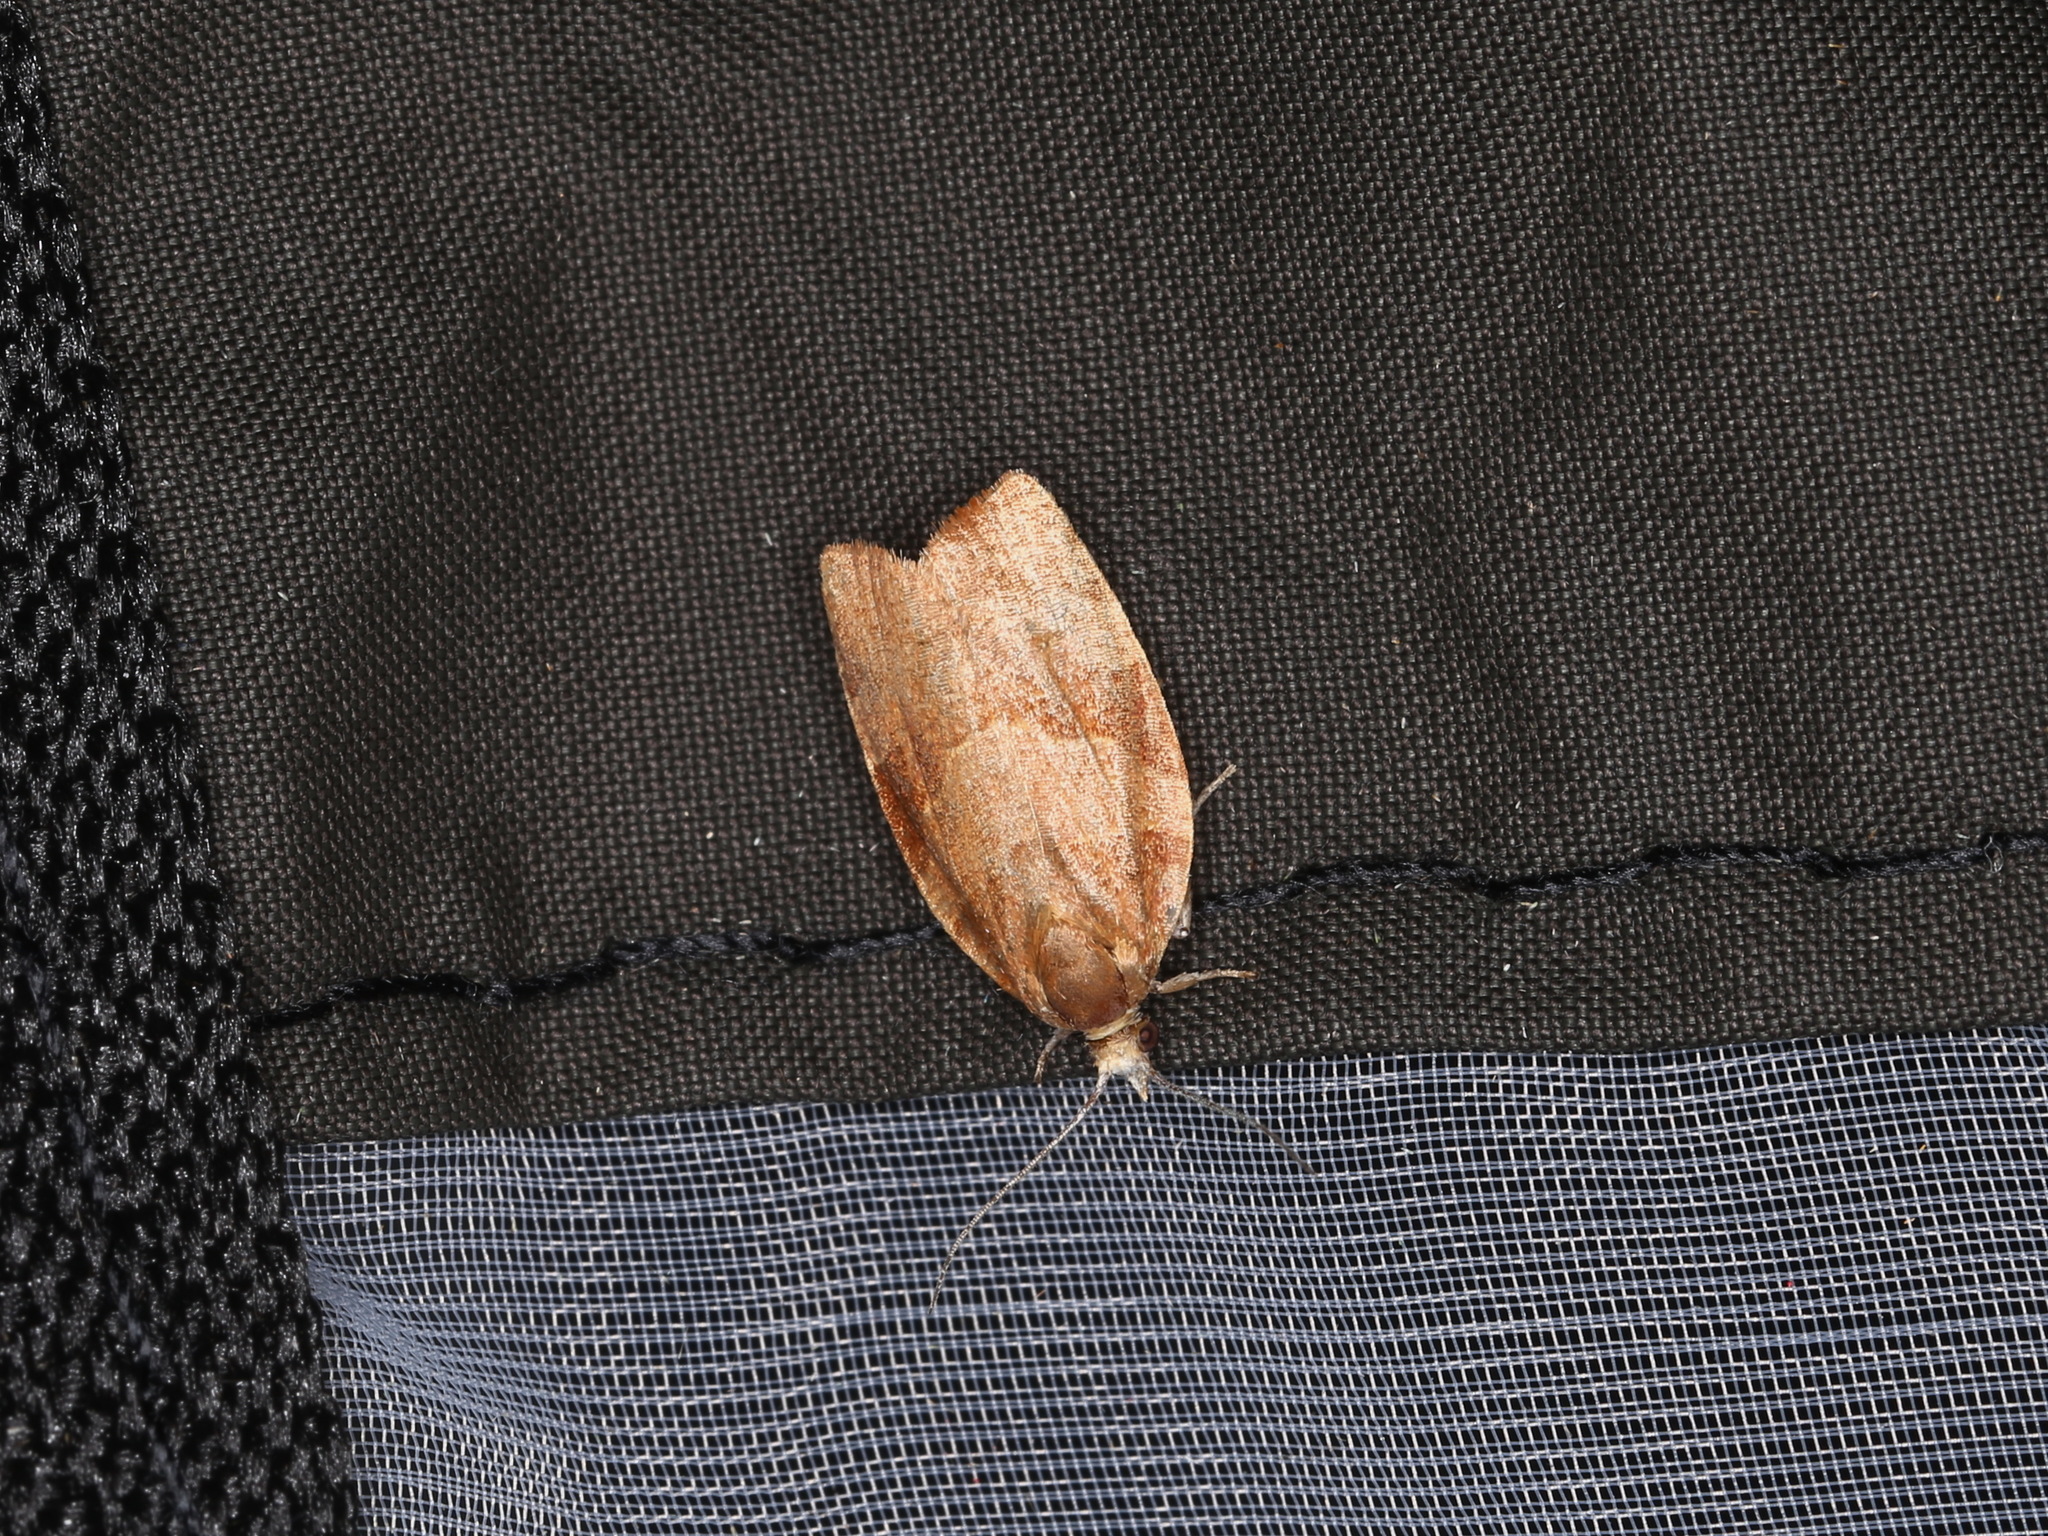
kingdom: Animalia
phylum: Arthropoda
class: Insecta
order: Lepidoptera
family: Tortricidae
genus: Pandemis
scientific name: Pandemis cerasana
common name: Barred fruit-tree tortrix
